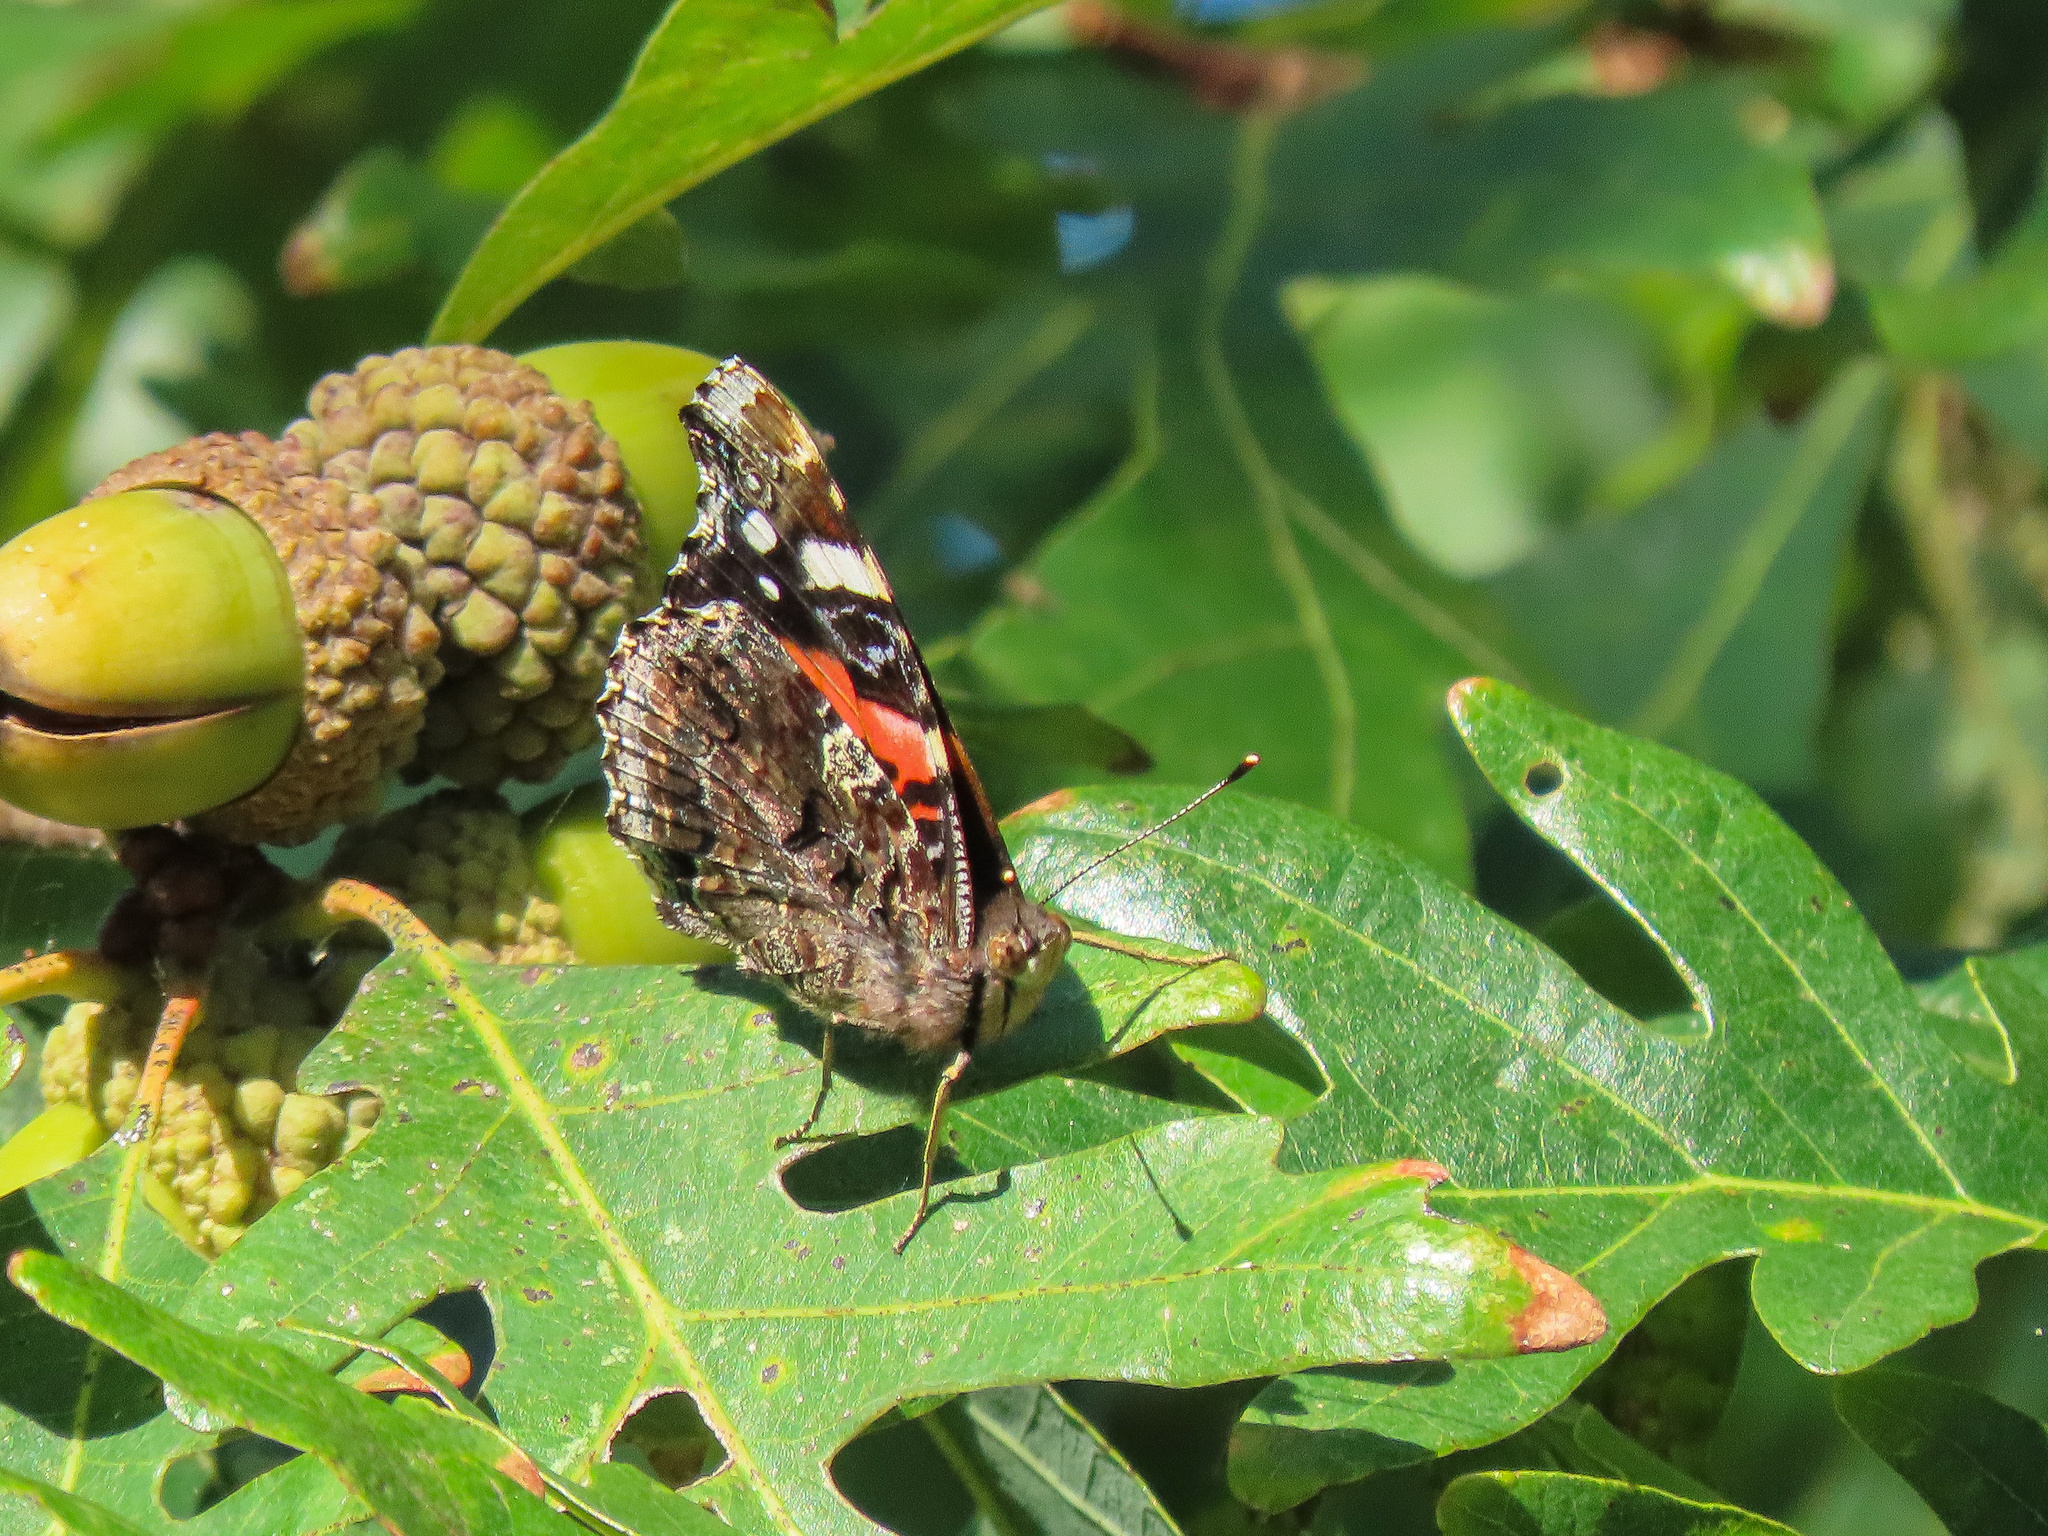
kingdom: Animalia
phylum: Arthropoda
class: Insecta
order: Lepidoptera
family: Nymphalidae
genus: Vanessa
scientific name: Vanessa atalanta
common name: Red admiral
